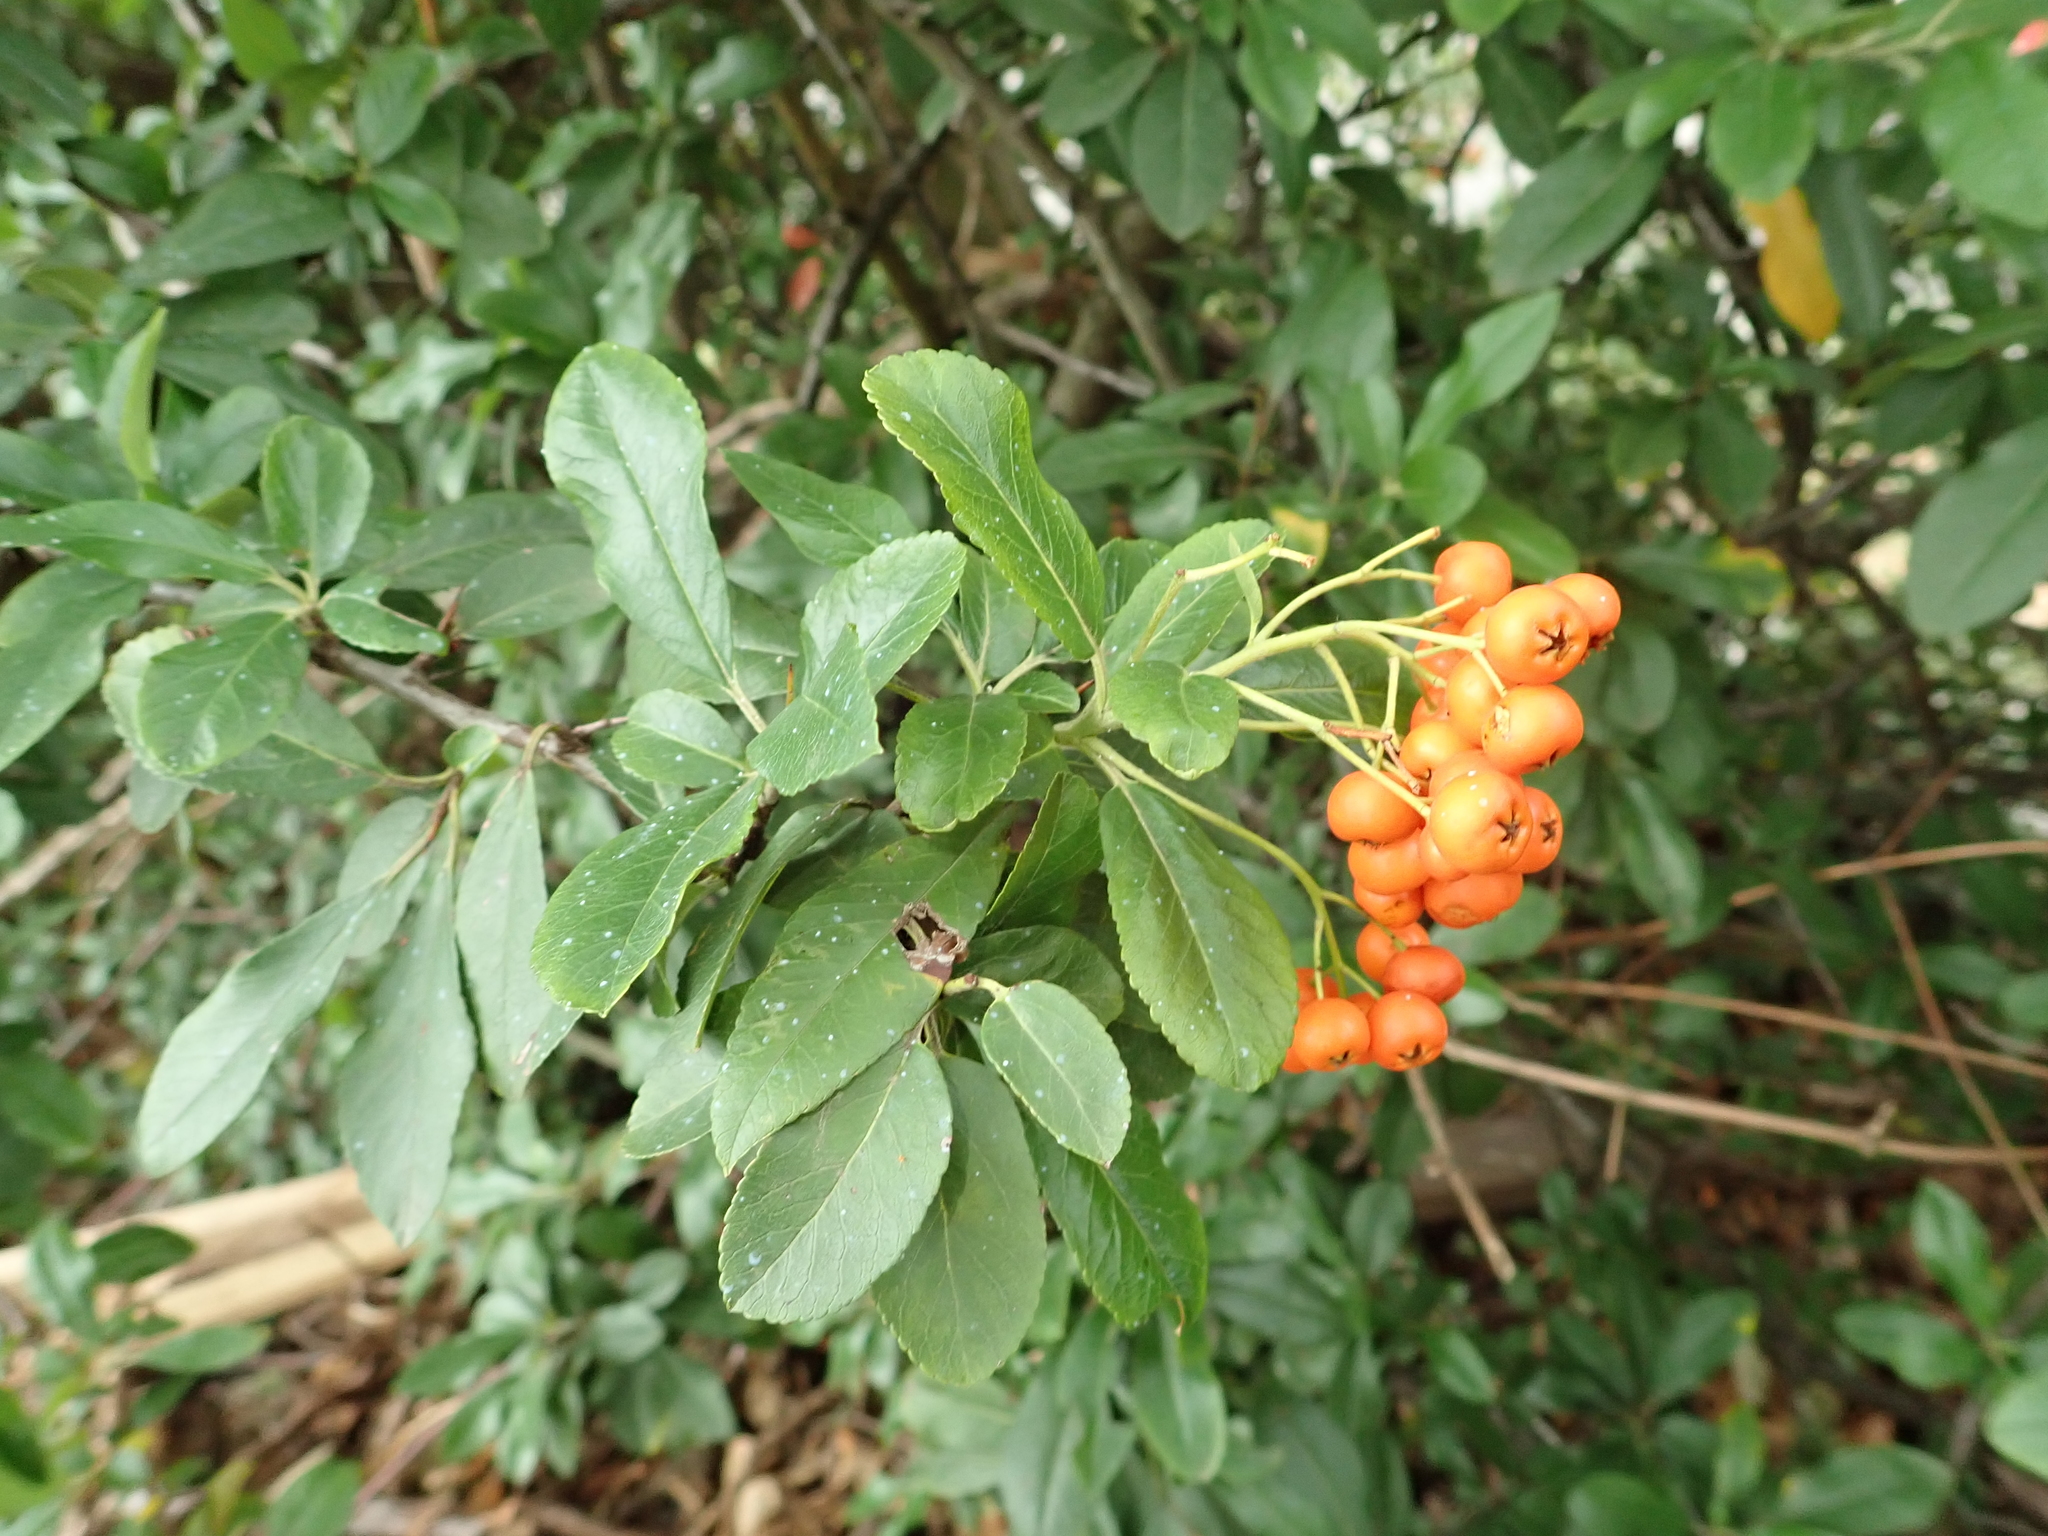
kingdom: Plantae
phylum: Tracheophyta
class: Magnoliopsida
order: Rosales
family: Rosaceae
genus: Pyracantha
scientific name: Pyracantha coccinea
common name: Firethorn
